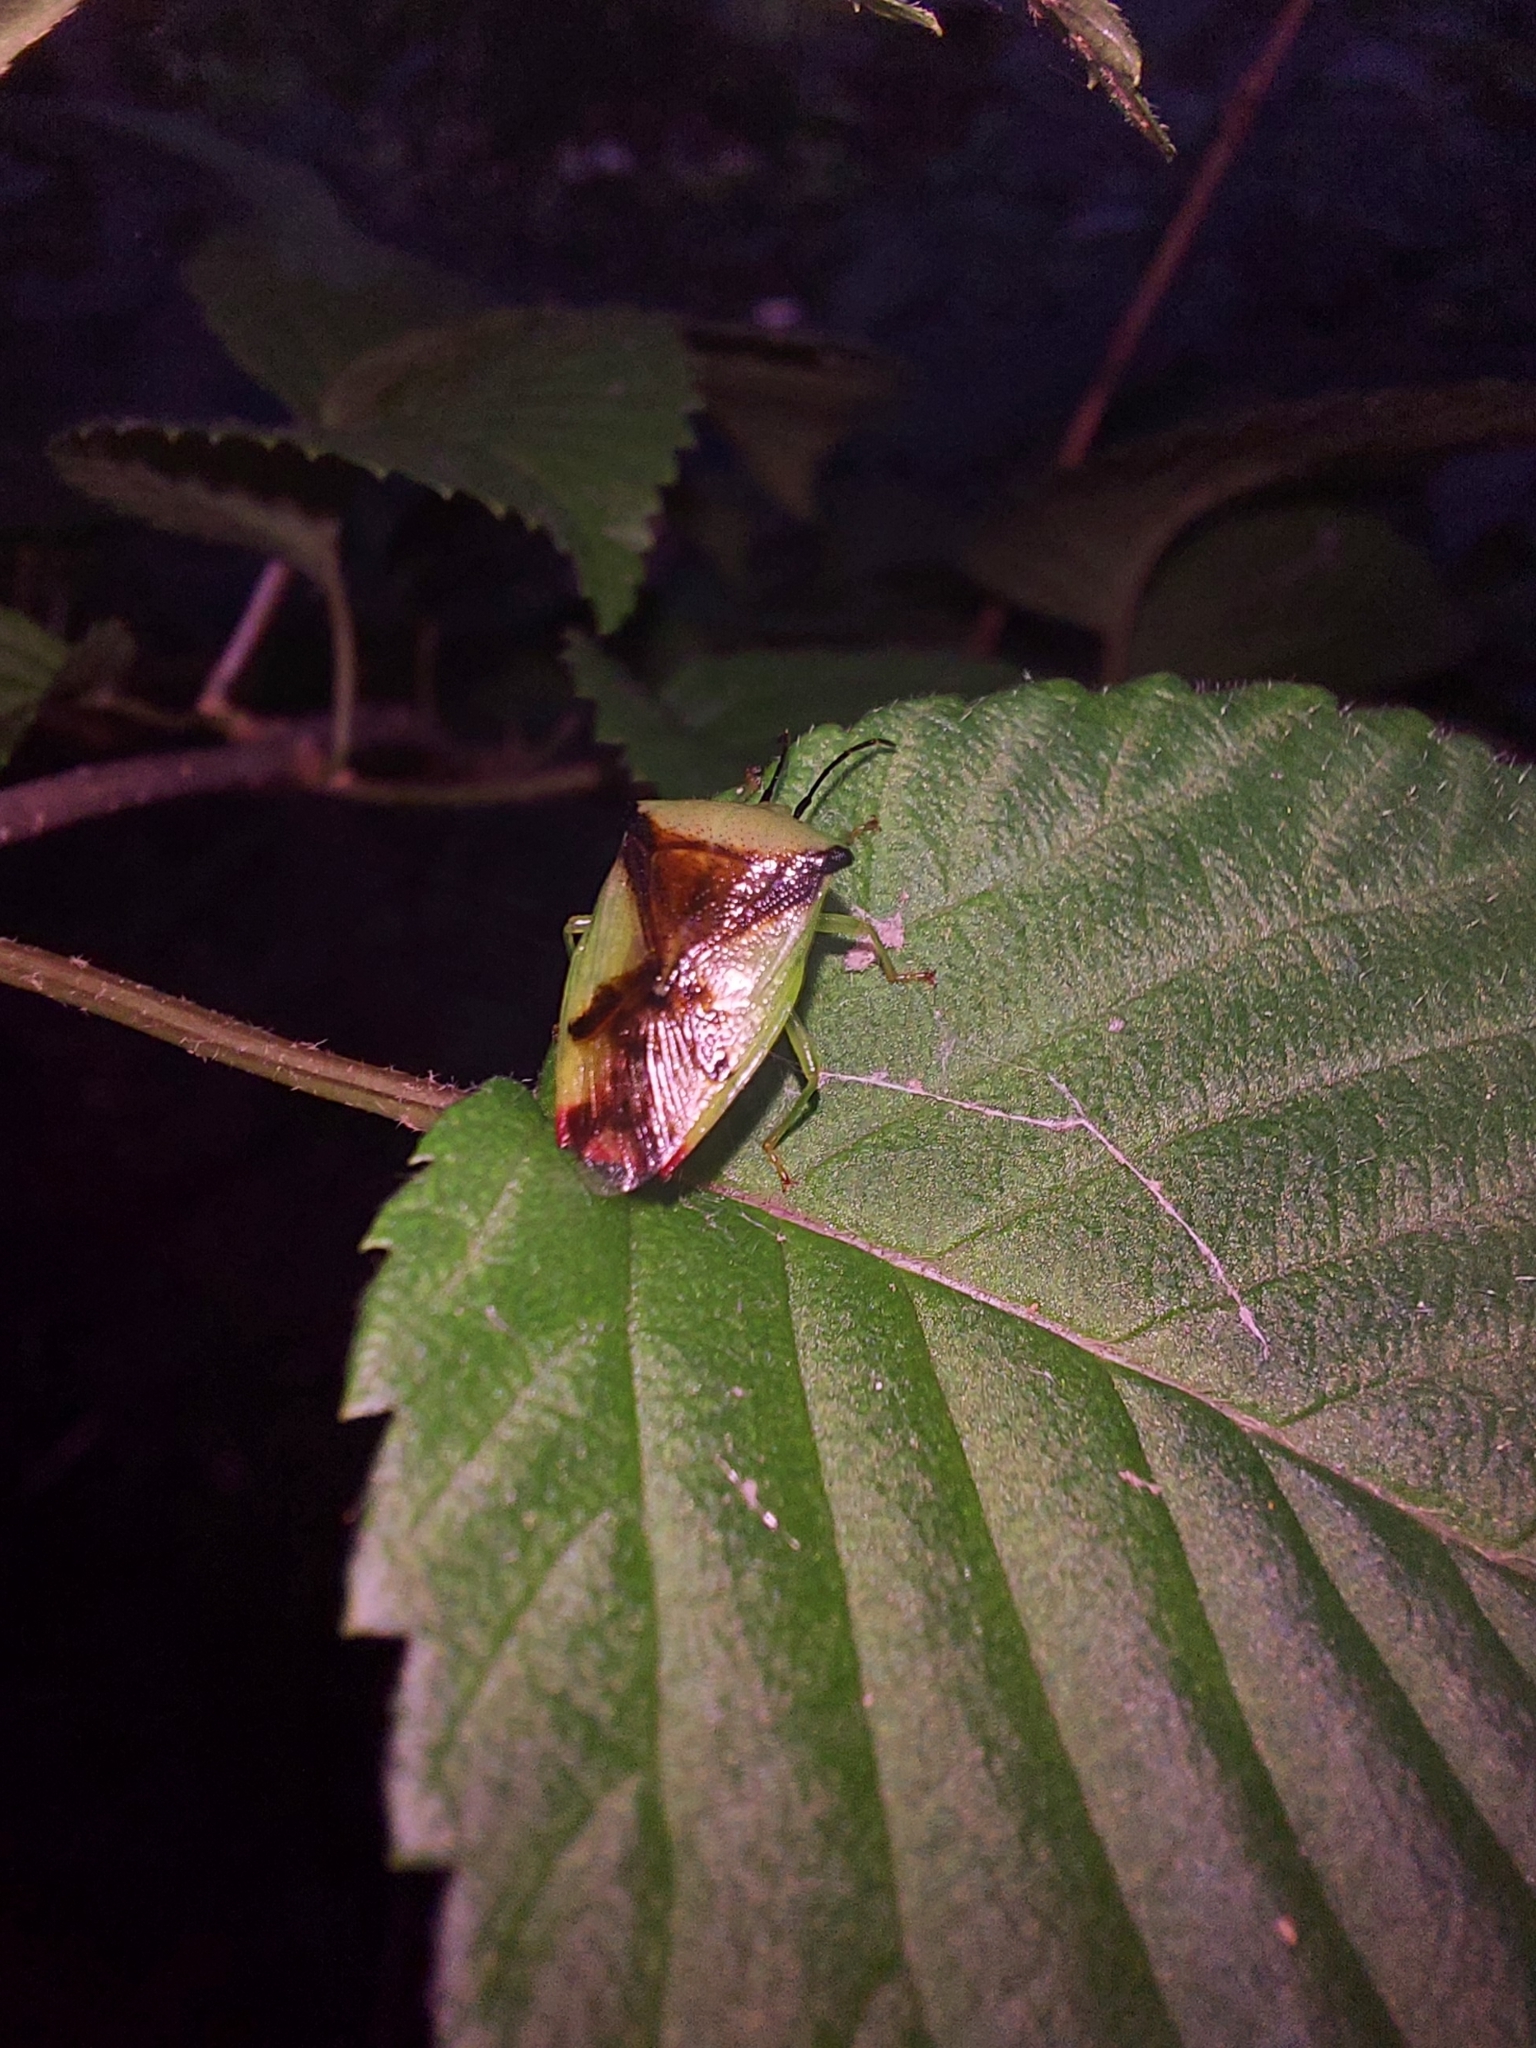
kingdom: Animalia
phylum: Arthropoda
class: Insecta
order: Hemiptera
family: Acanthosomatidae
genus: Elasmostethus
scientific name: Elasmostethus atricornis
